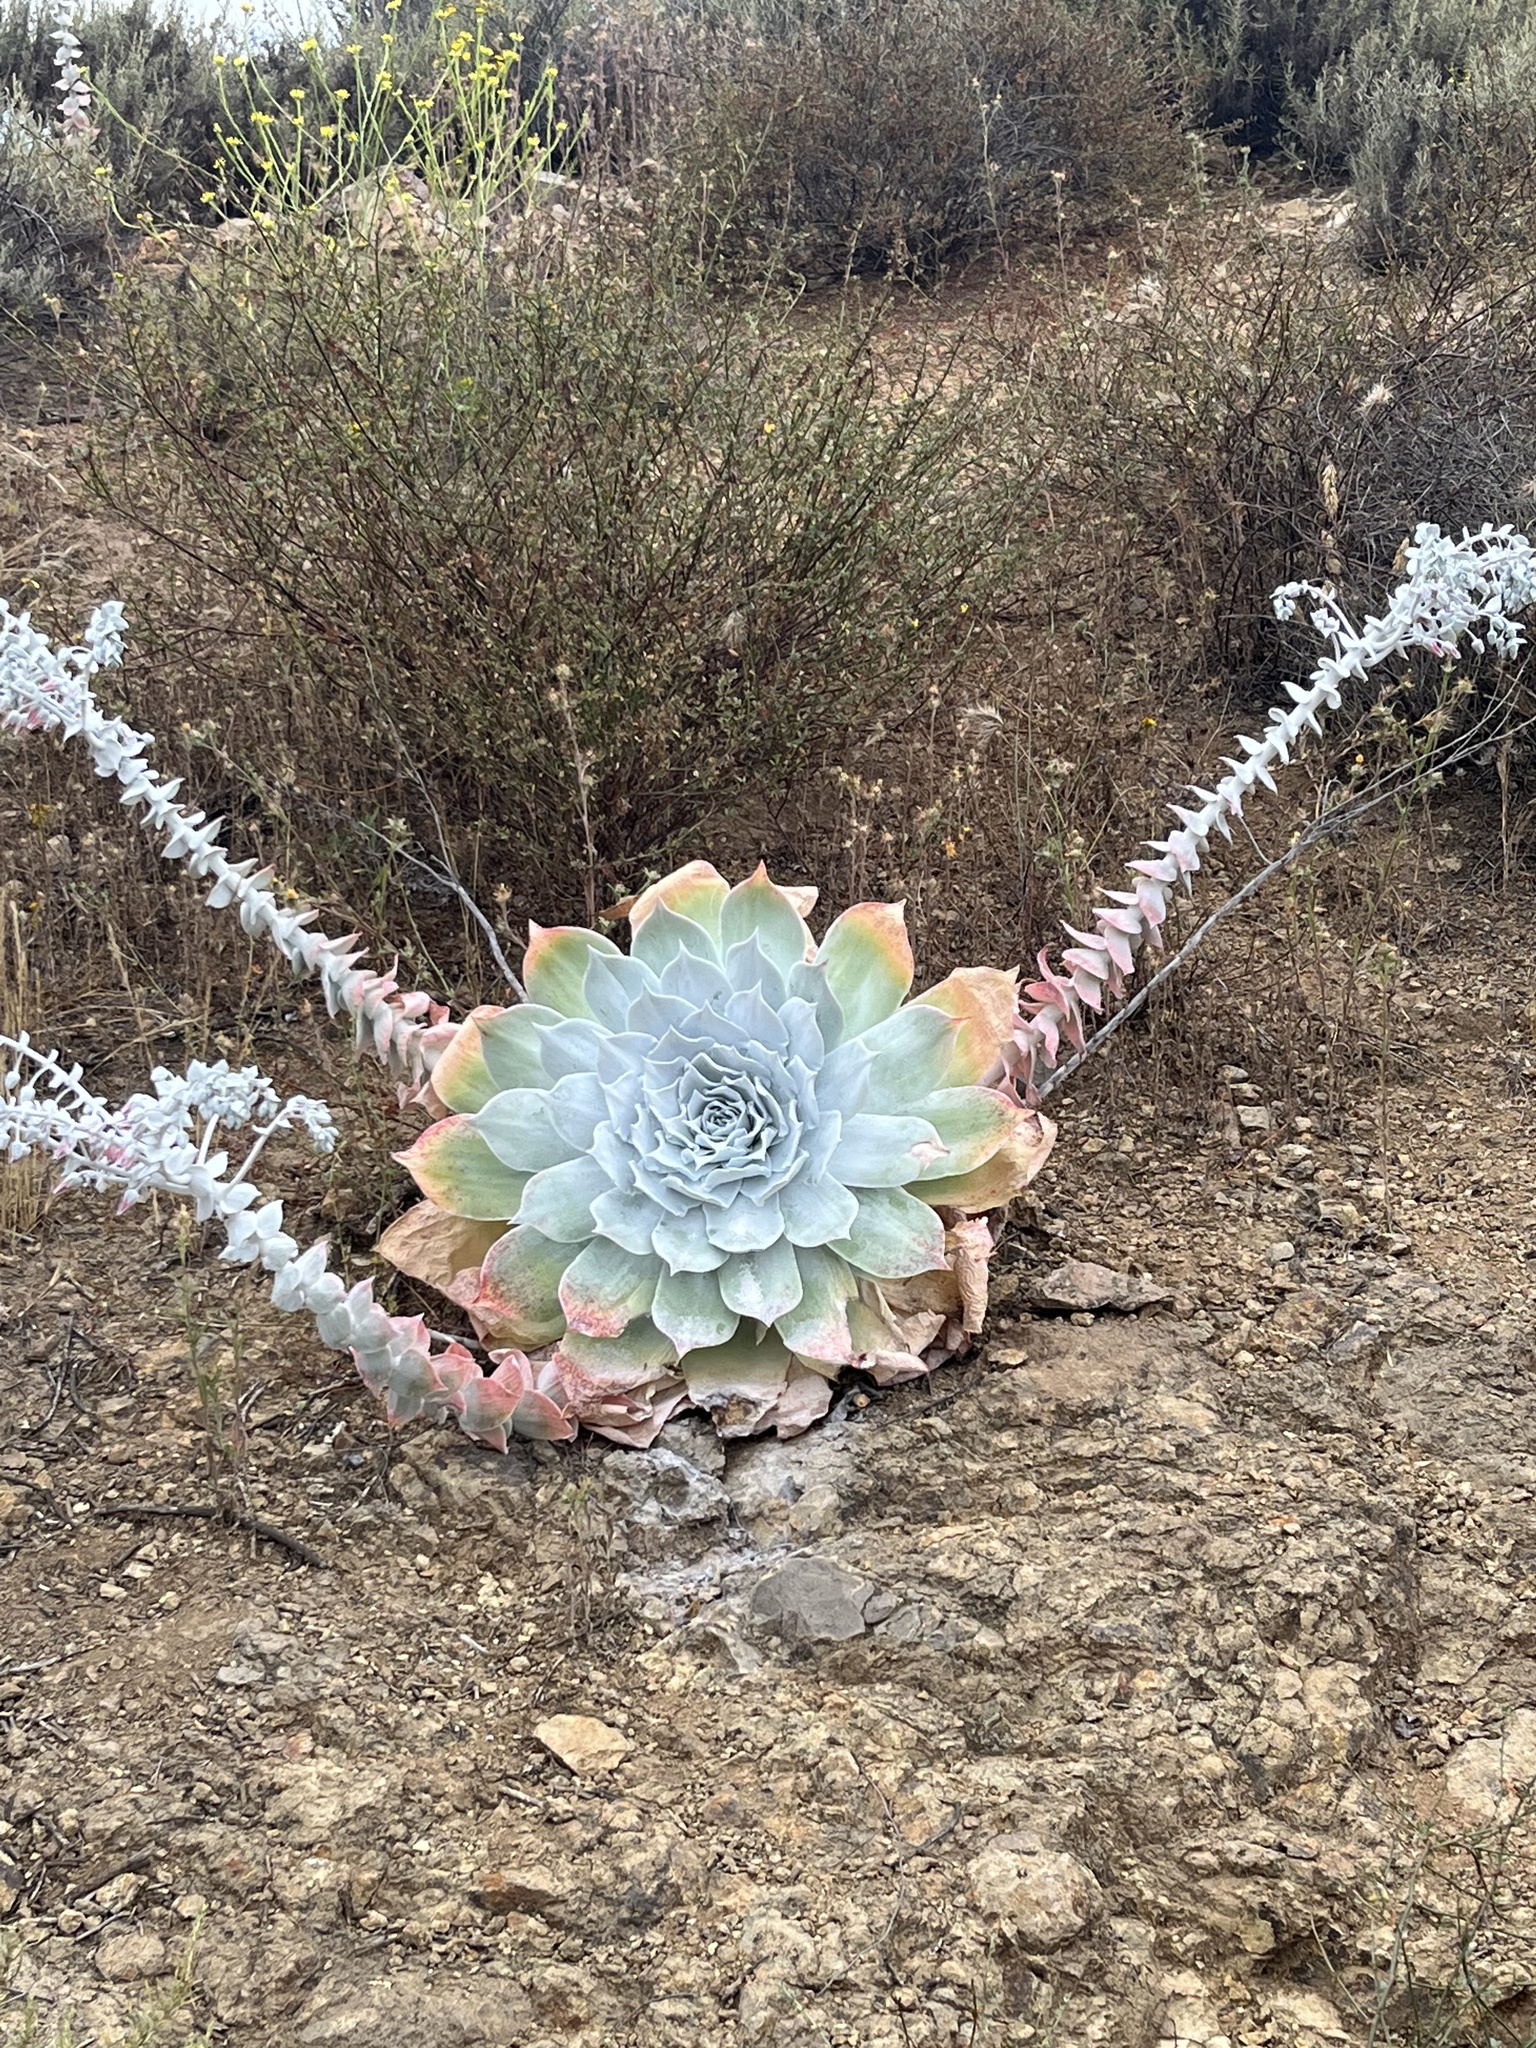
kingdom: Plantae
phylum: Tracheophyta
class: Magnoliopsida
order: Saxifragales
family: Crassulaceae
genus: Dudleya
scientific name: Dudleya pulverulenta
